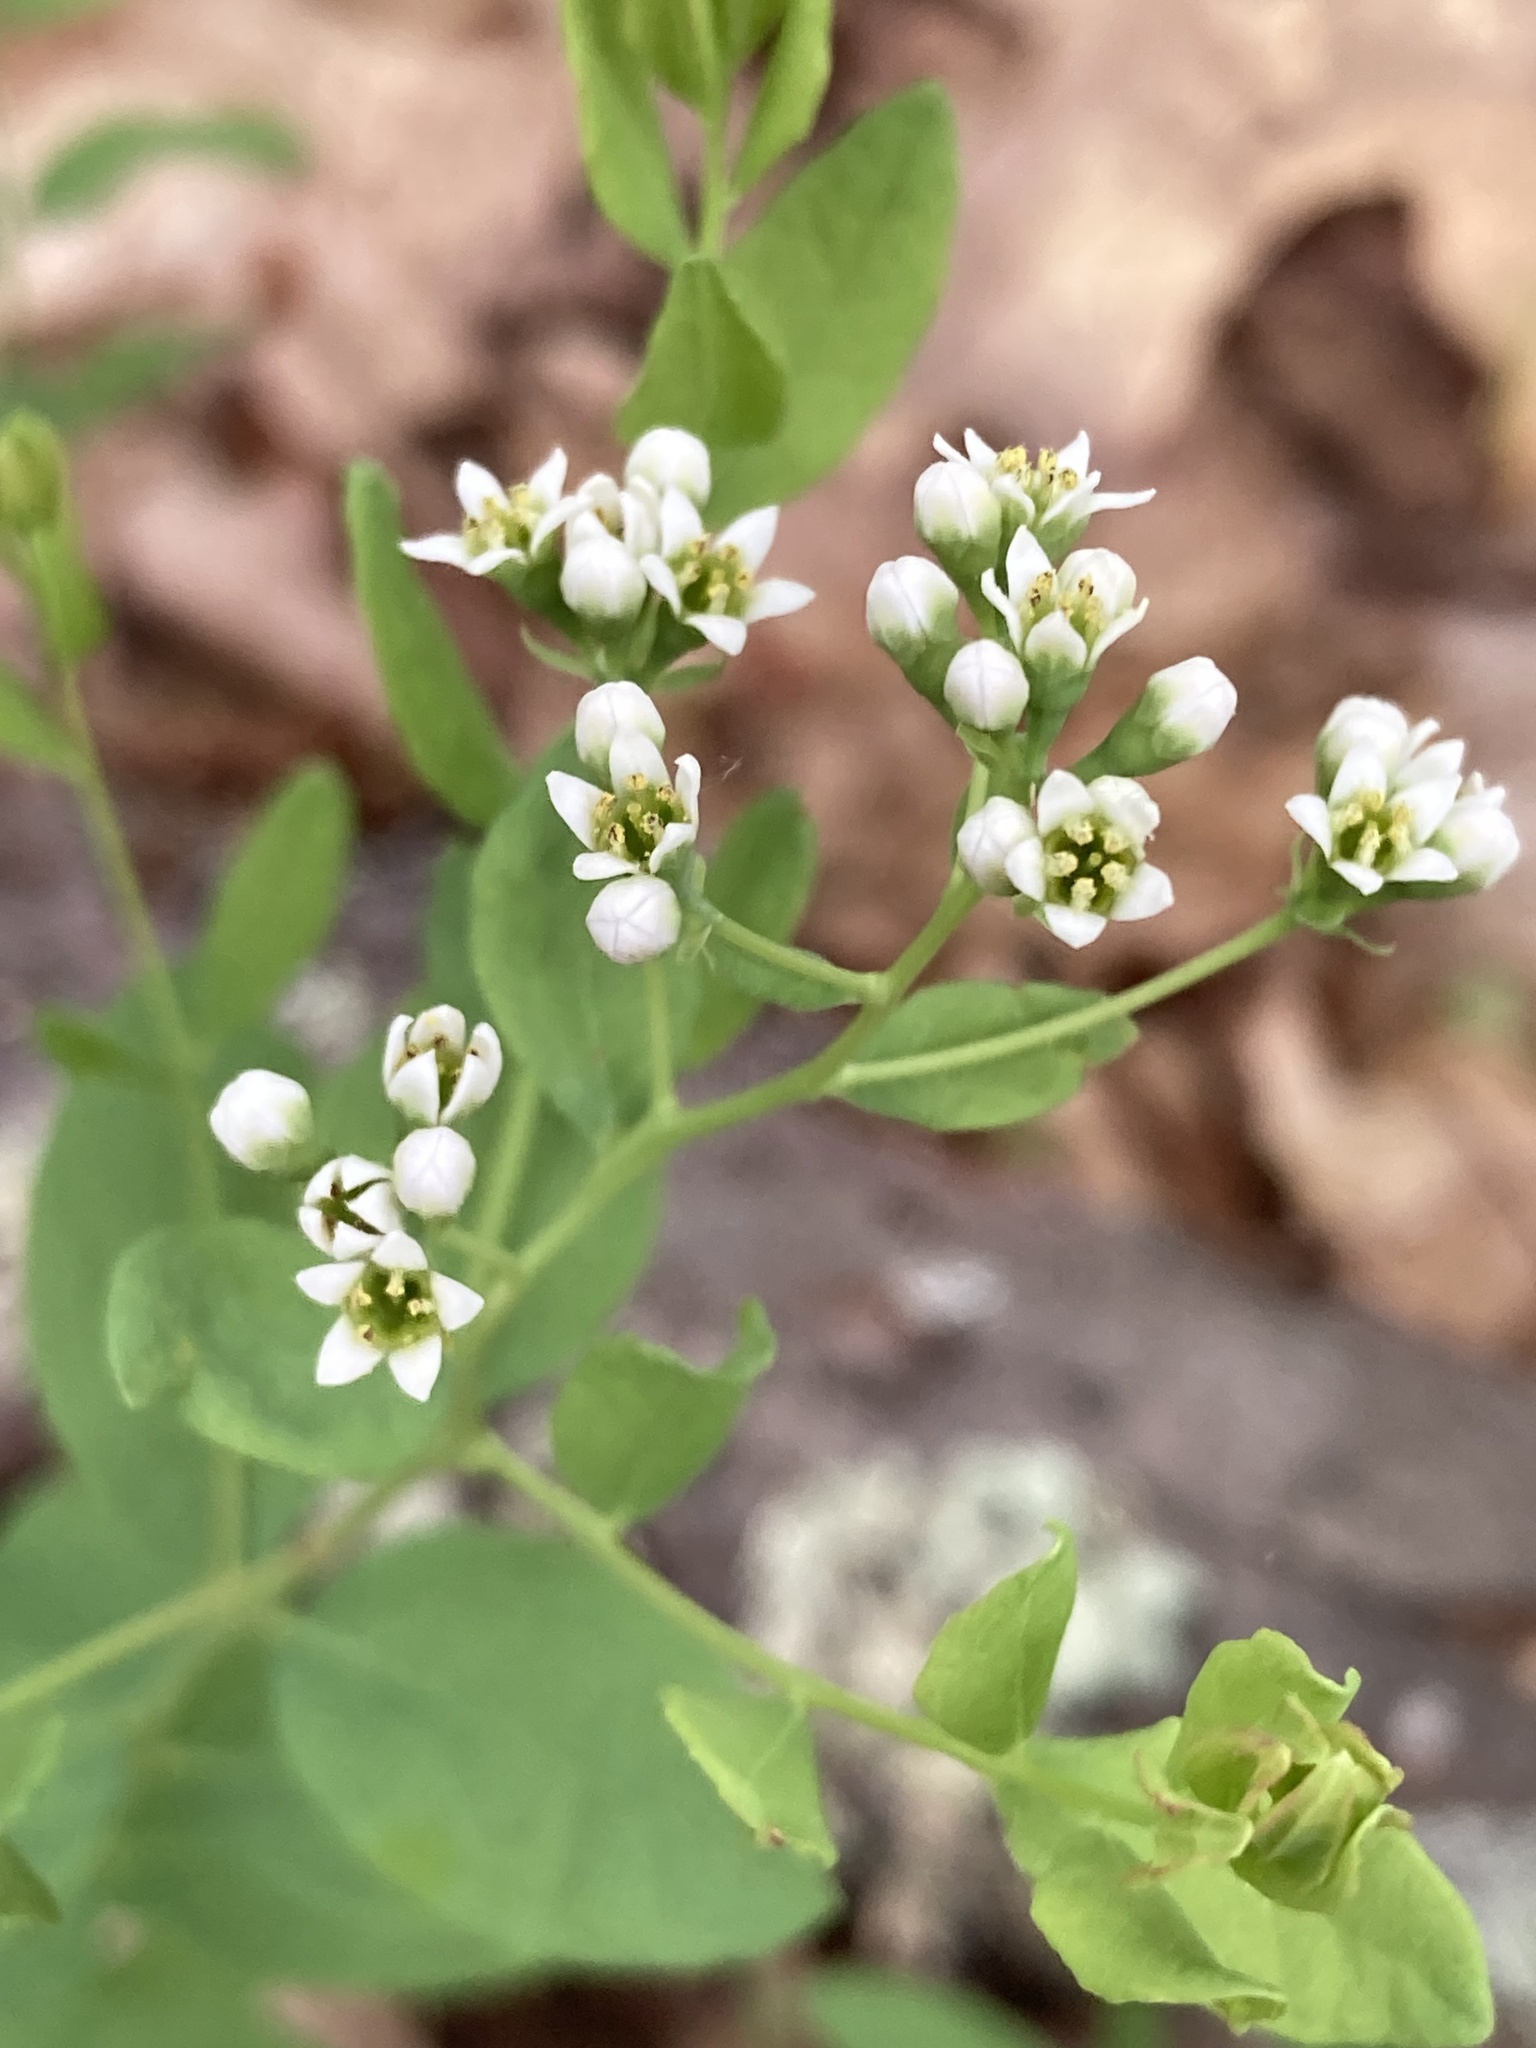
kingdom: Plantae
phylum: Tracheophyta
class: Magnoliopsida
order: Santalales
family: Comandraceae
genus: Comandra
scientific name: Comandra umbellata
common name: Bastard toadflax
